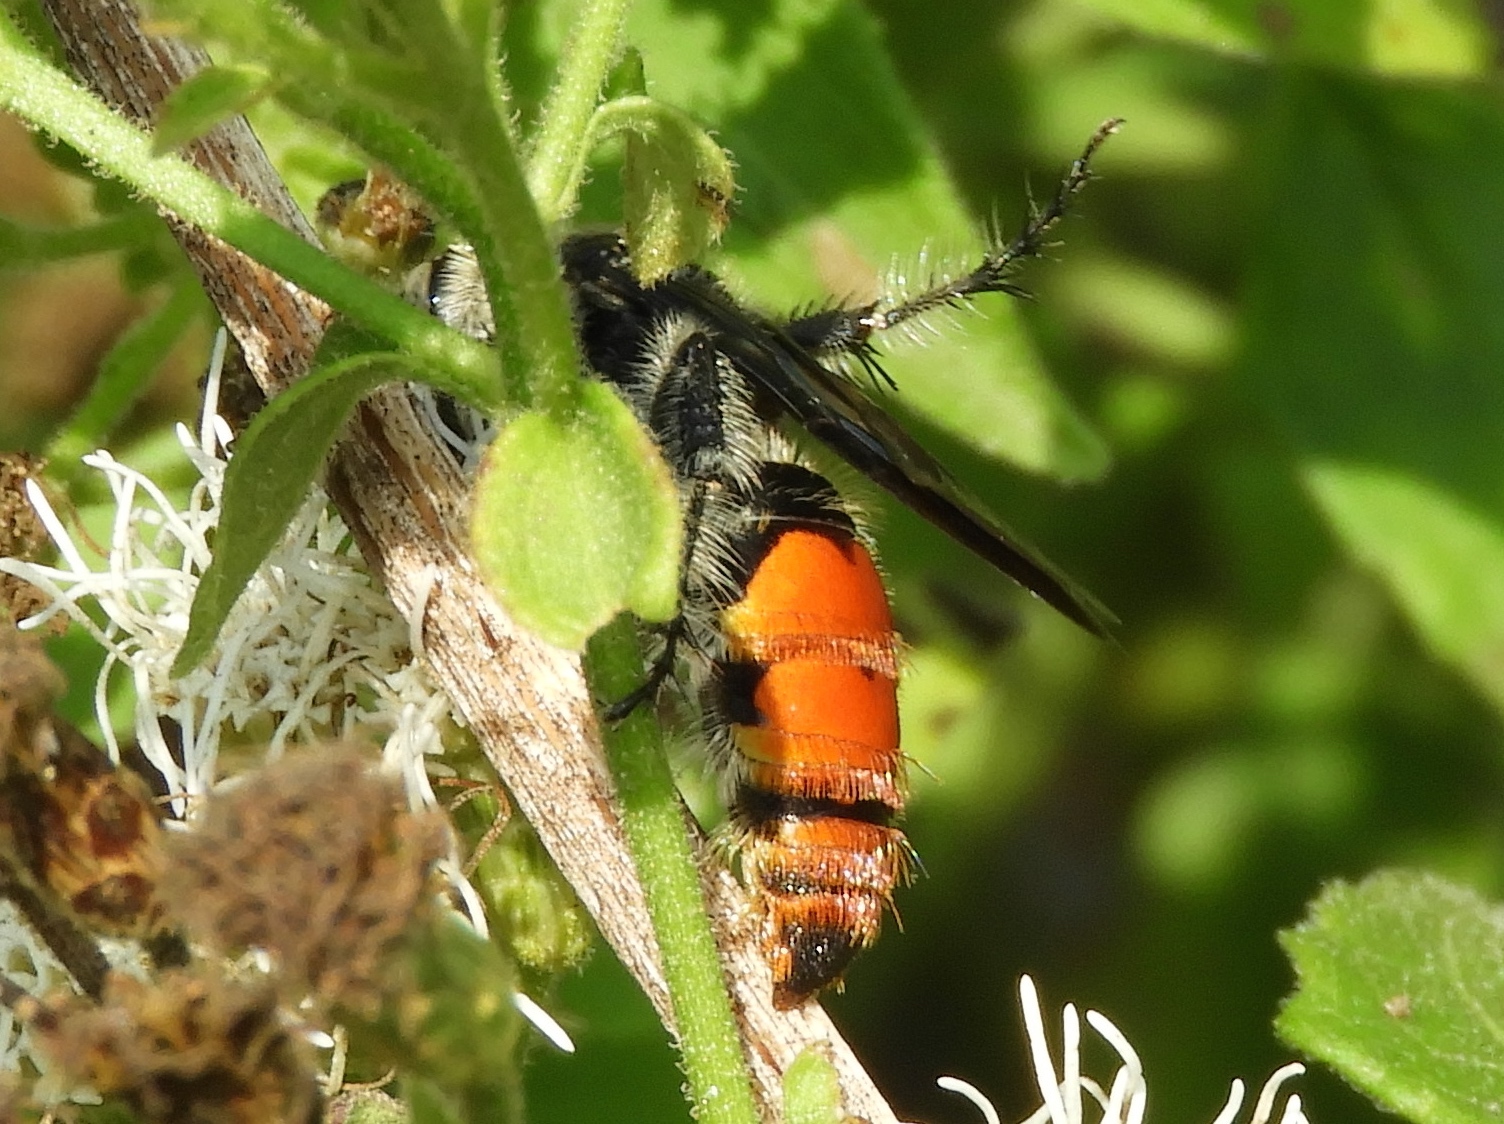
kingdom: Animalia
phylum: Arthropoda
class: Insecta
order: Hymenoptera
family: Scoliidae
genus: Dielis
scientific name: Dielis tolteca
